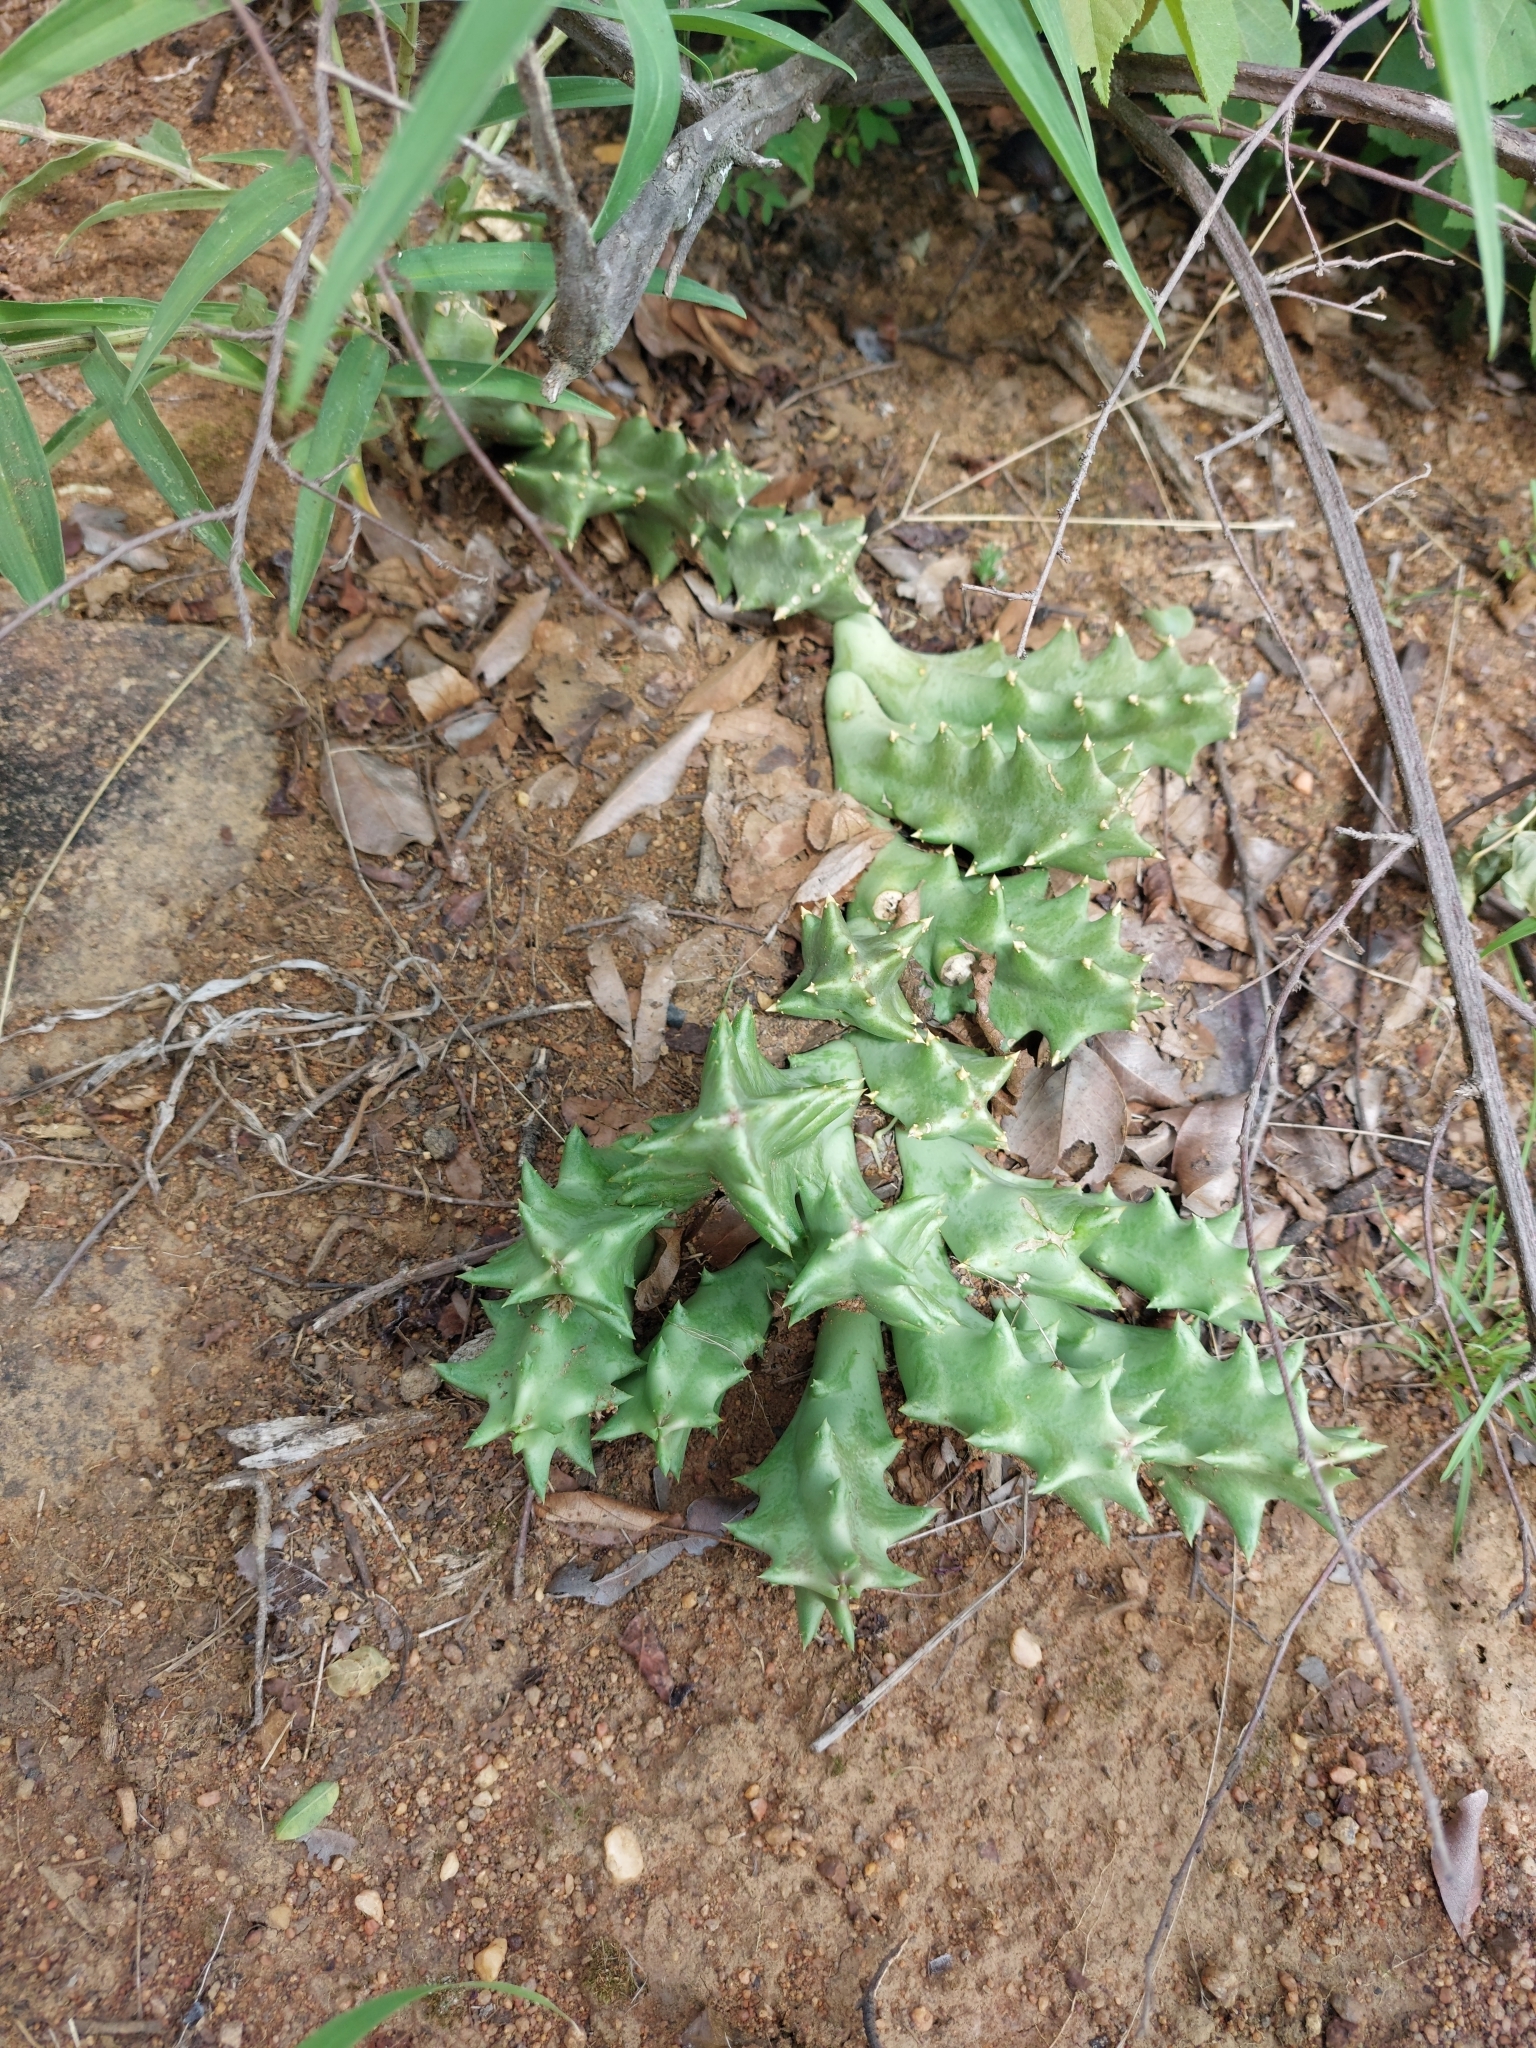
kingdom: Plantae
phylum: Tracheophyta
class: Magnoliopsida
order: Gentianales
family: Apocynaceae
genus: Ceropegia
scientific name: Ceropegia melanantha
